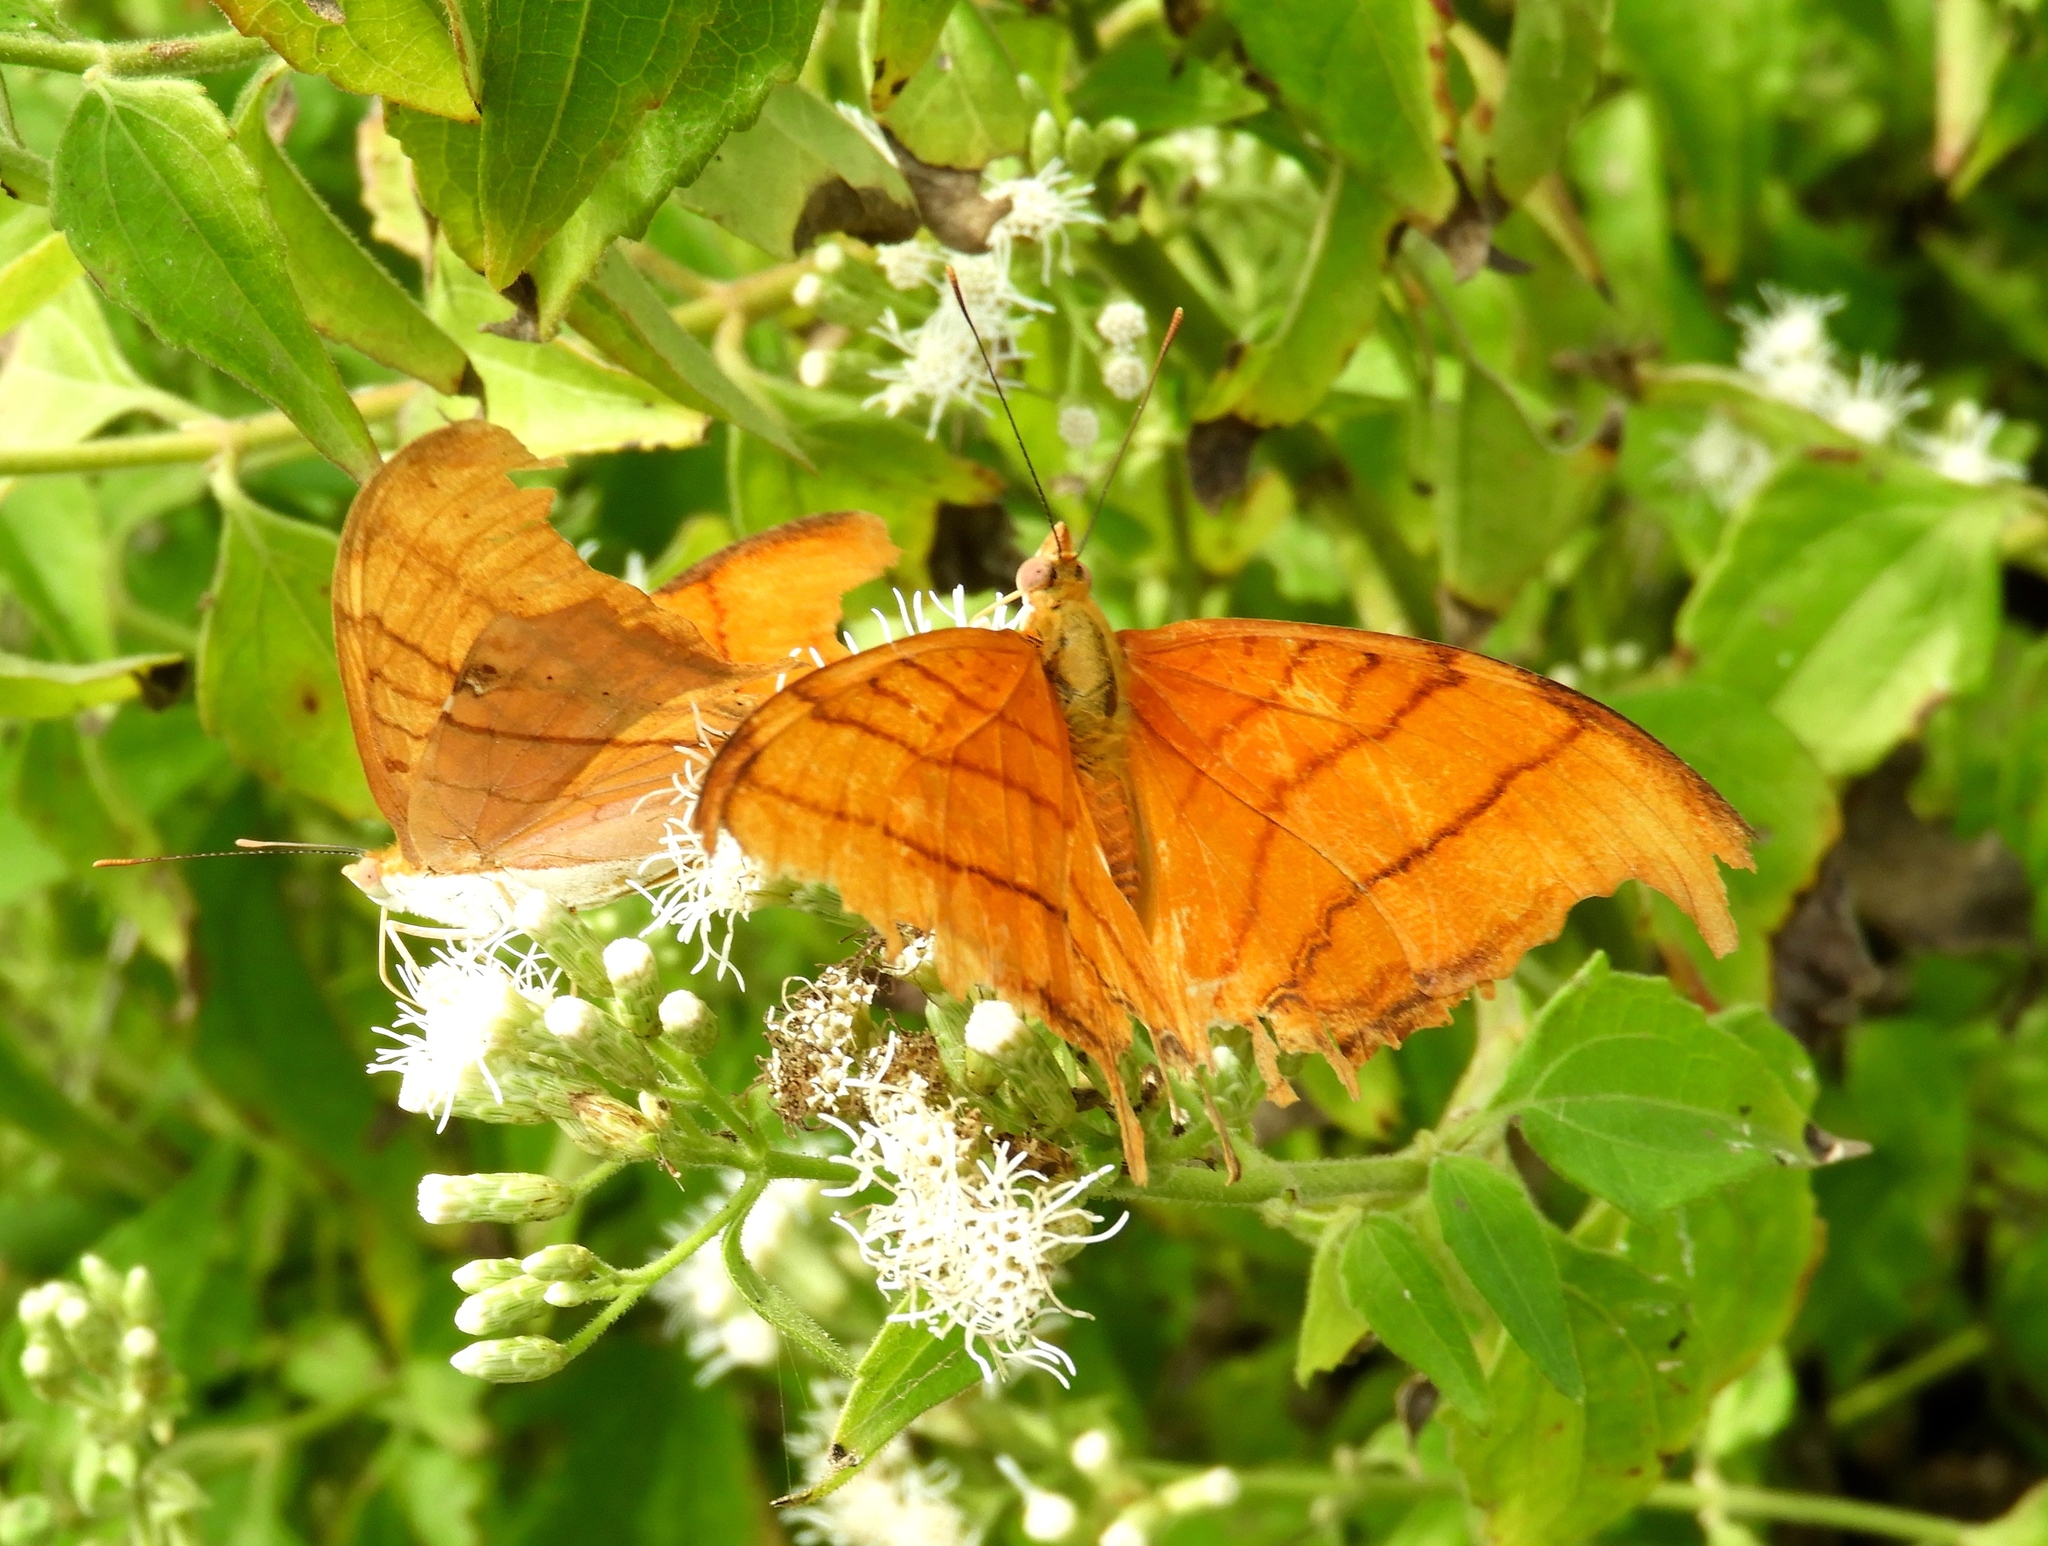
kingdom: Animalia
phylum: Arthropoda
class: Insecta
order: Lepidoptera
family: Nymphalidae
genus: Marpesia
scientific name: Marpesia petreus
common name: Red dagger wing
